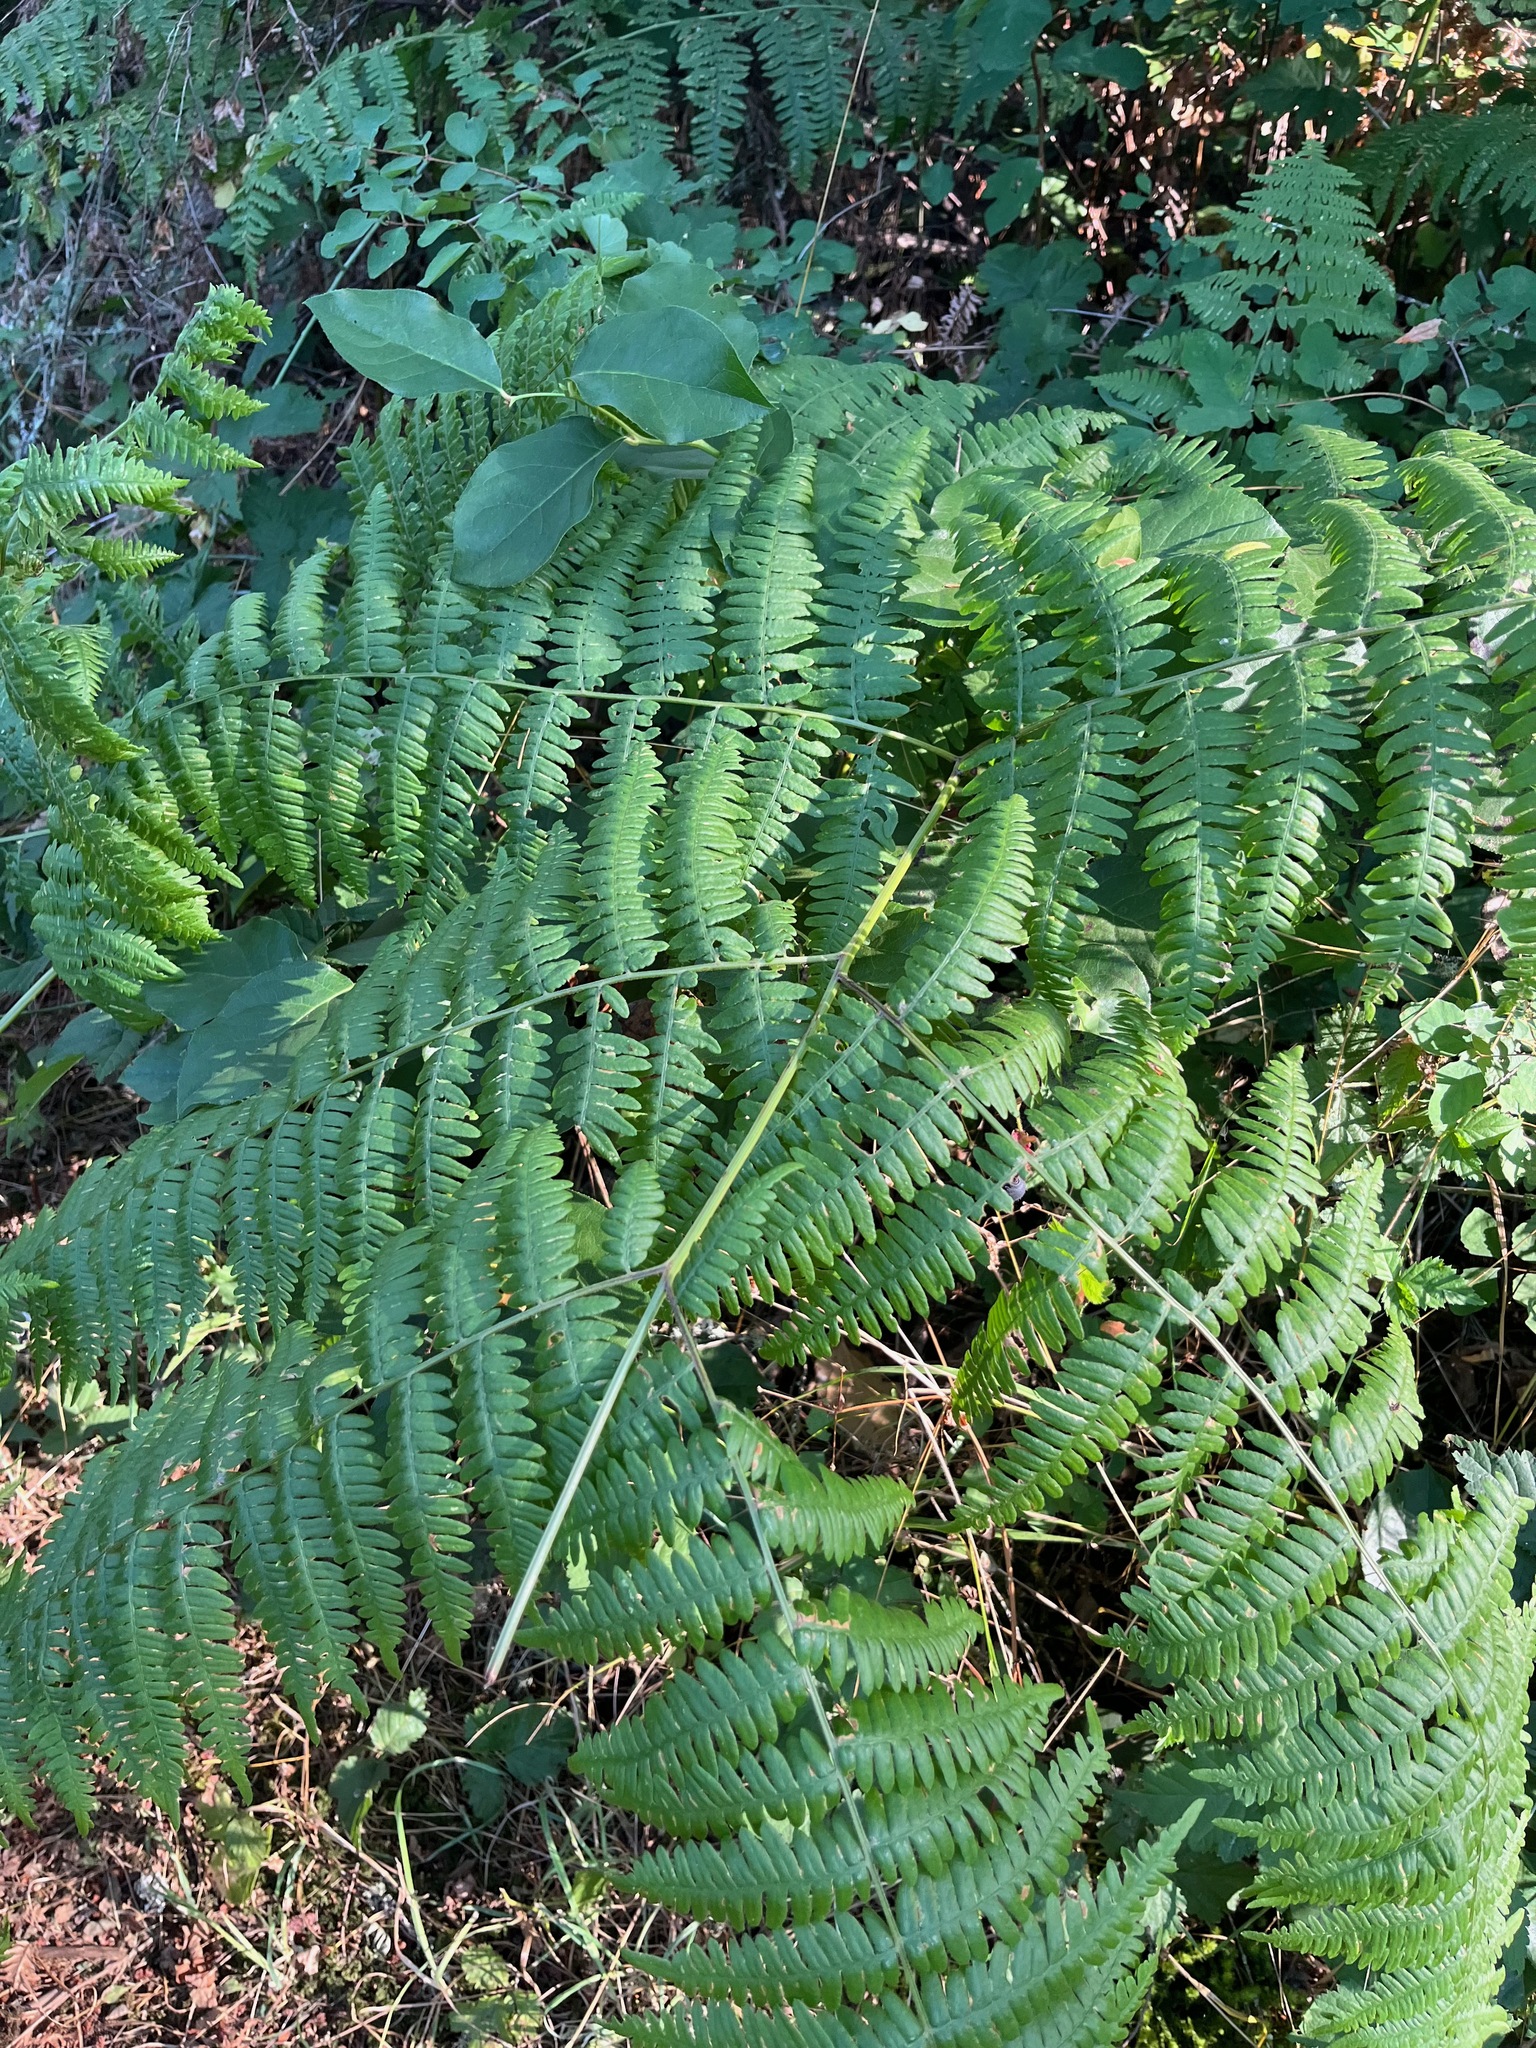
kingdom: Plantae
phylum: Tracheophyta
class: Polypodiopsida
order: Polypodiales
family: Dennstaedtiaceae
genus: Pteridium
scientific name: Pteridium aquilinum
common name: Bracken
